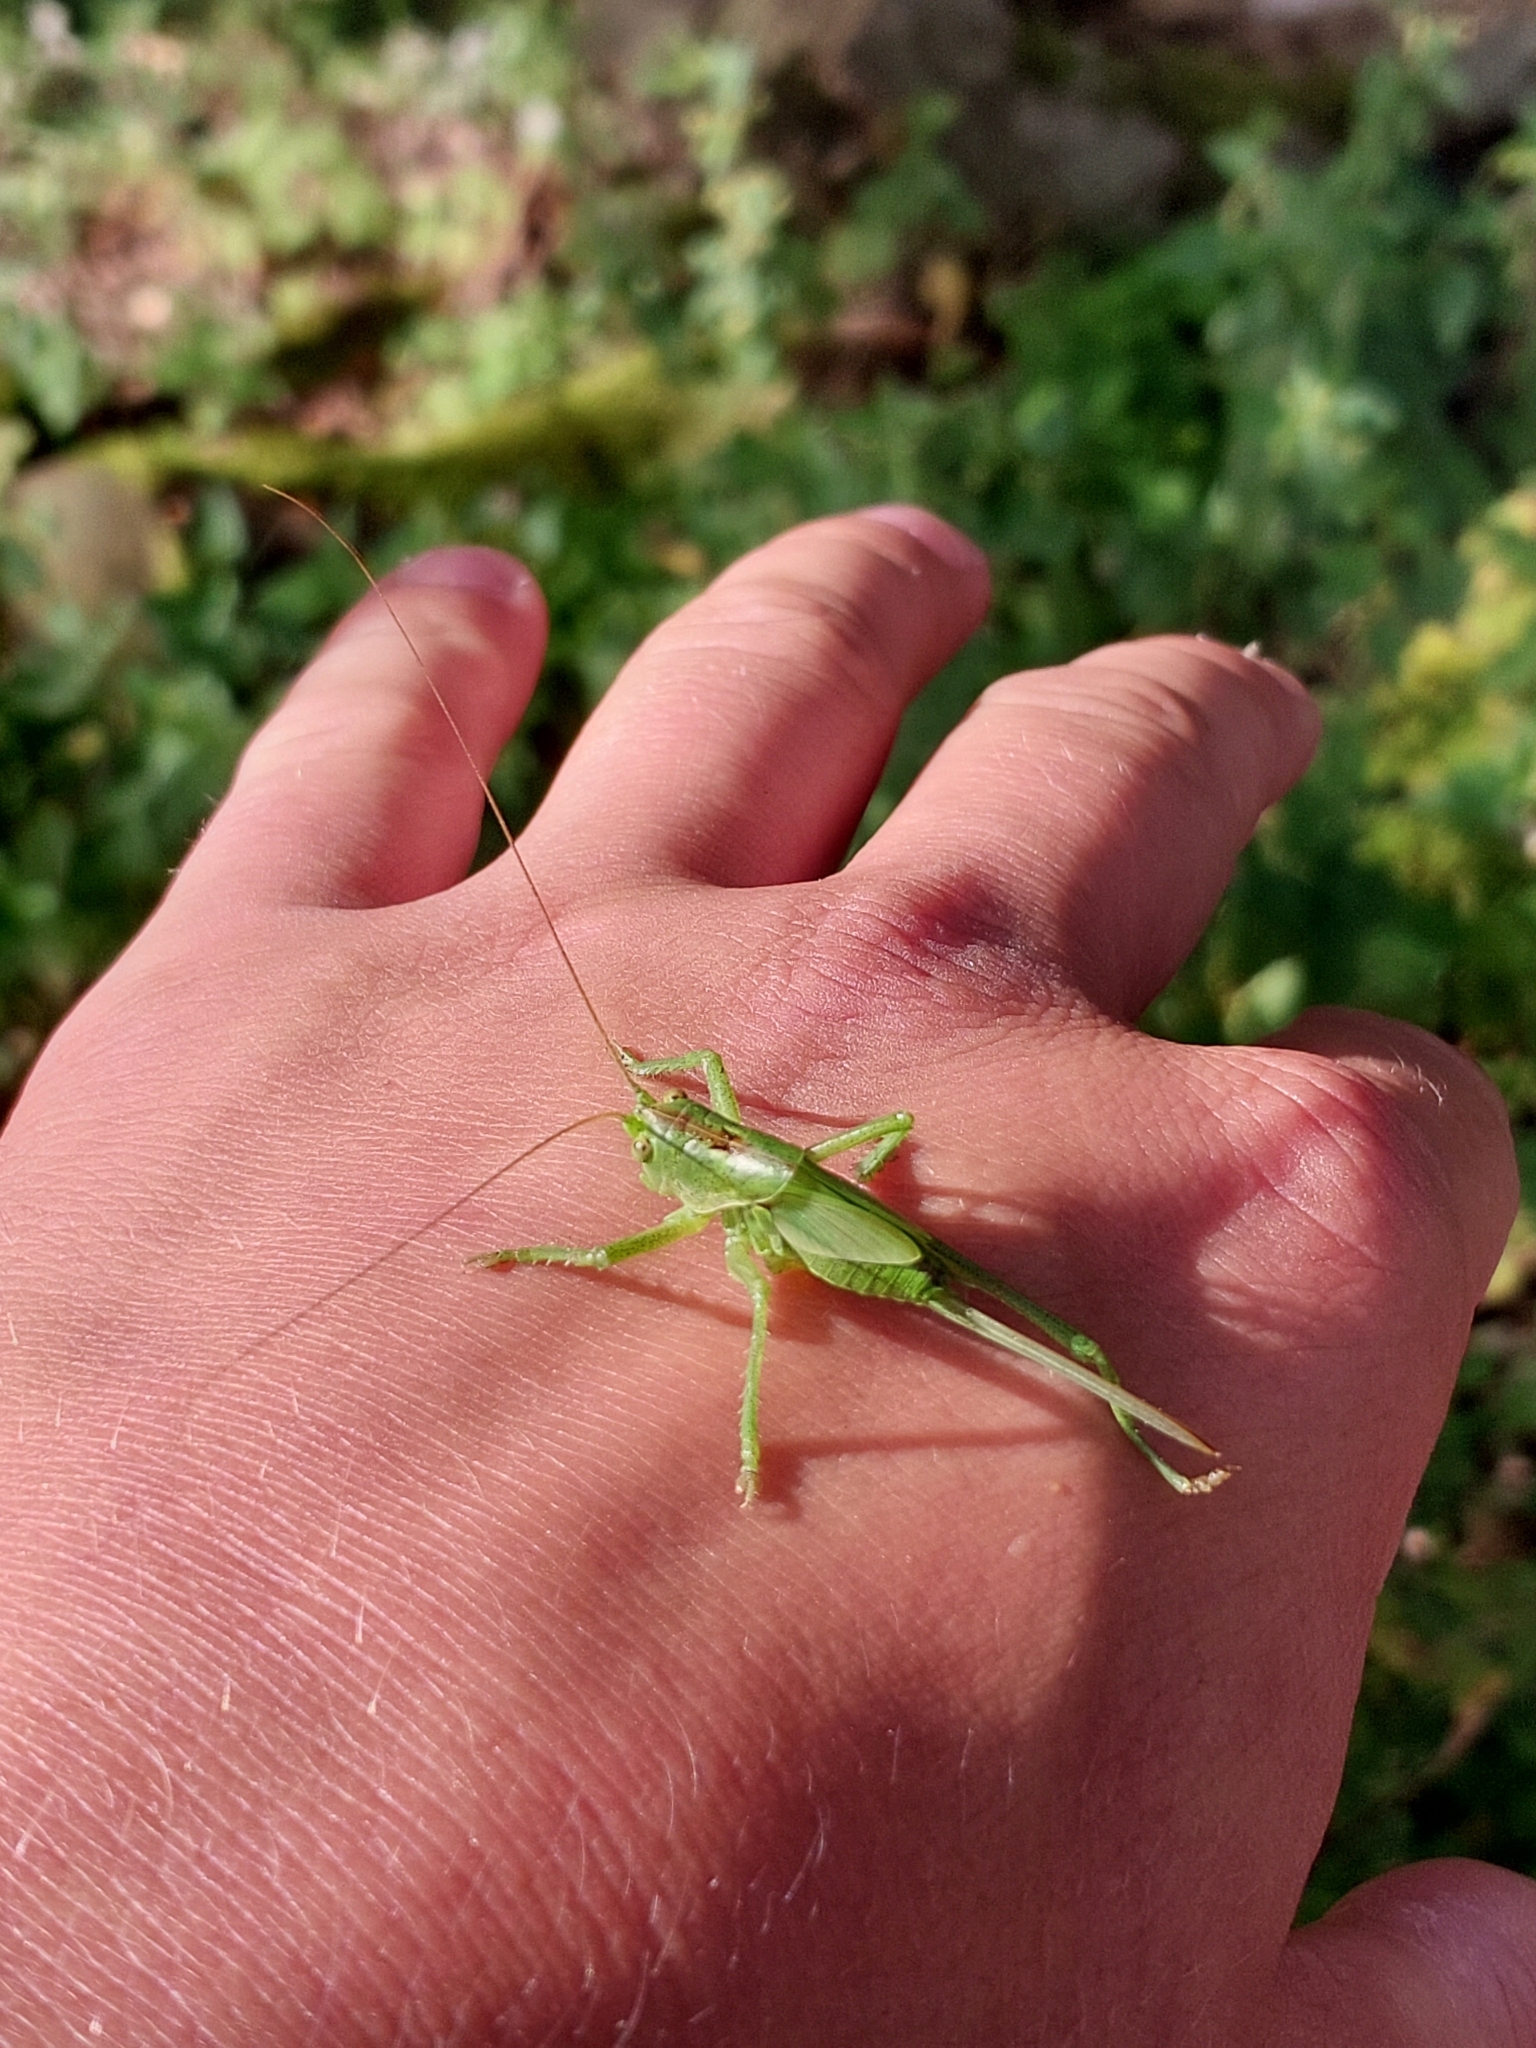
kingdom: Animalia
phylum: Arthropoda
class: Insecta
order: Orthoptera
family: Tettigoniidae
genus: Tettigonia
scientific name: Tettigonia viridissima
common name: Great green bush-cricket
